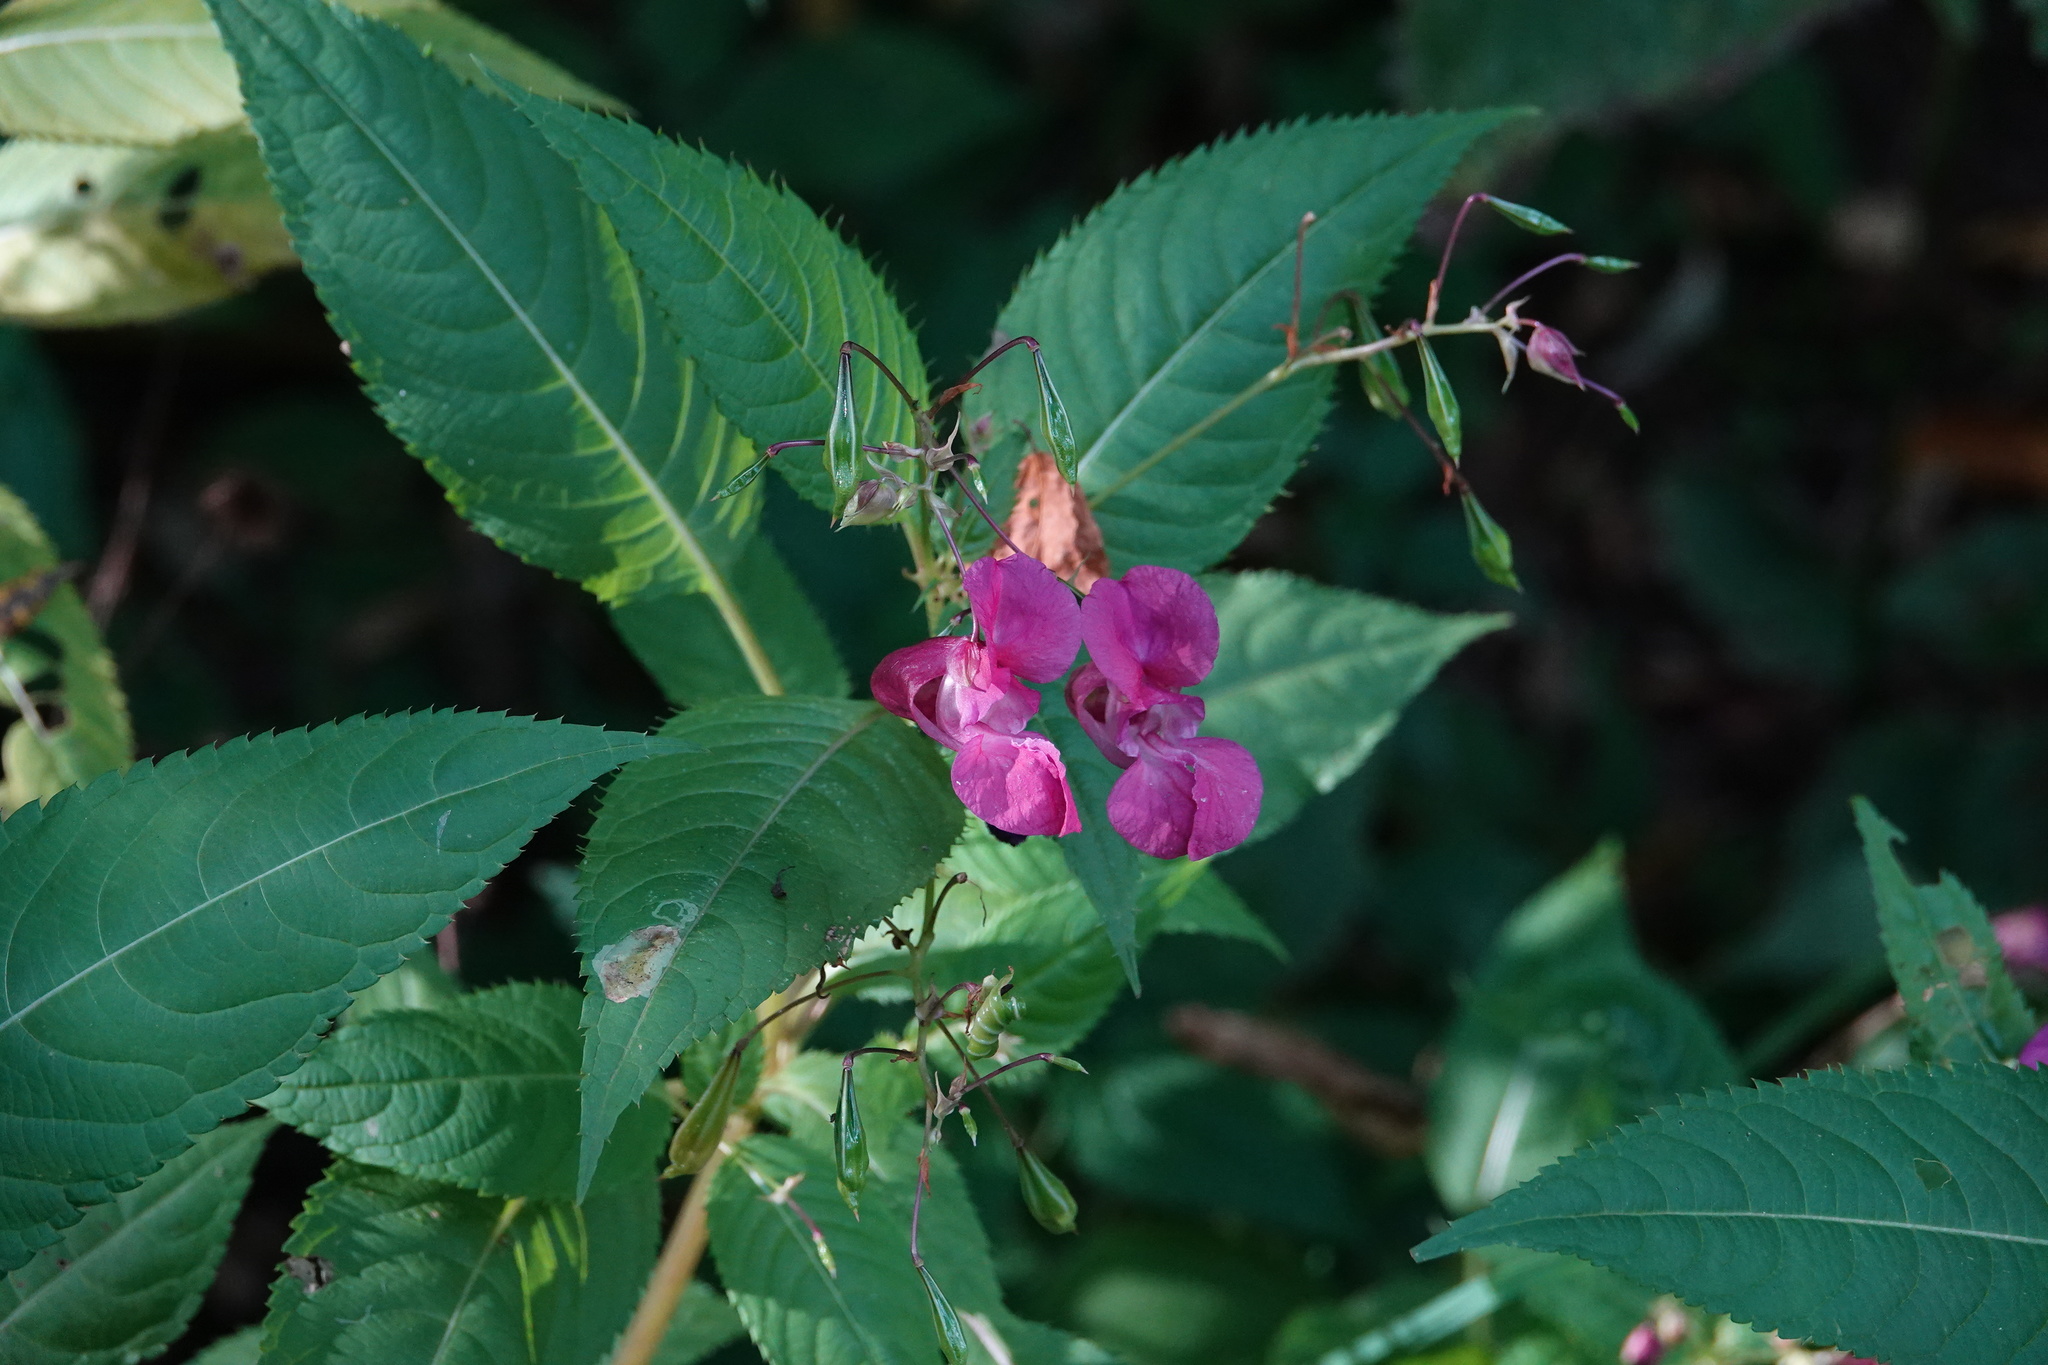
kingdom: Plantae
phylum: Tracheophyta
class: Magnoliopsida
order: Ericales
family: Balsaminaceae
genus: Impatiens
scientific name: Impatiens glandulifera
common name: Himalayan balsam
